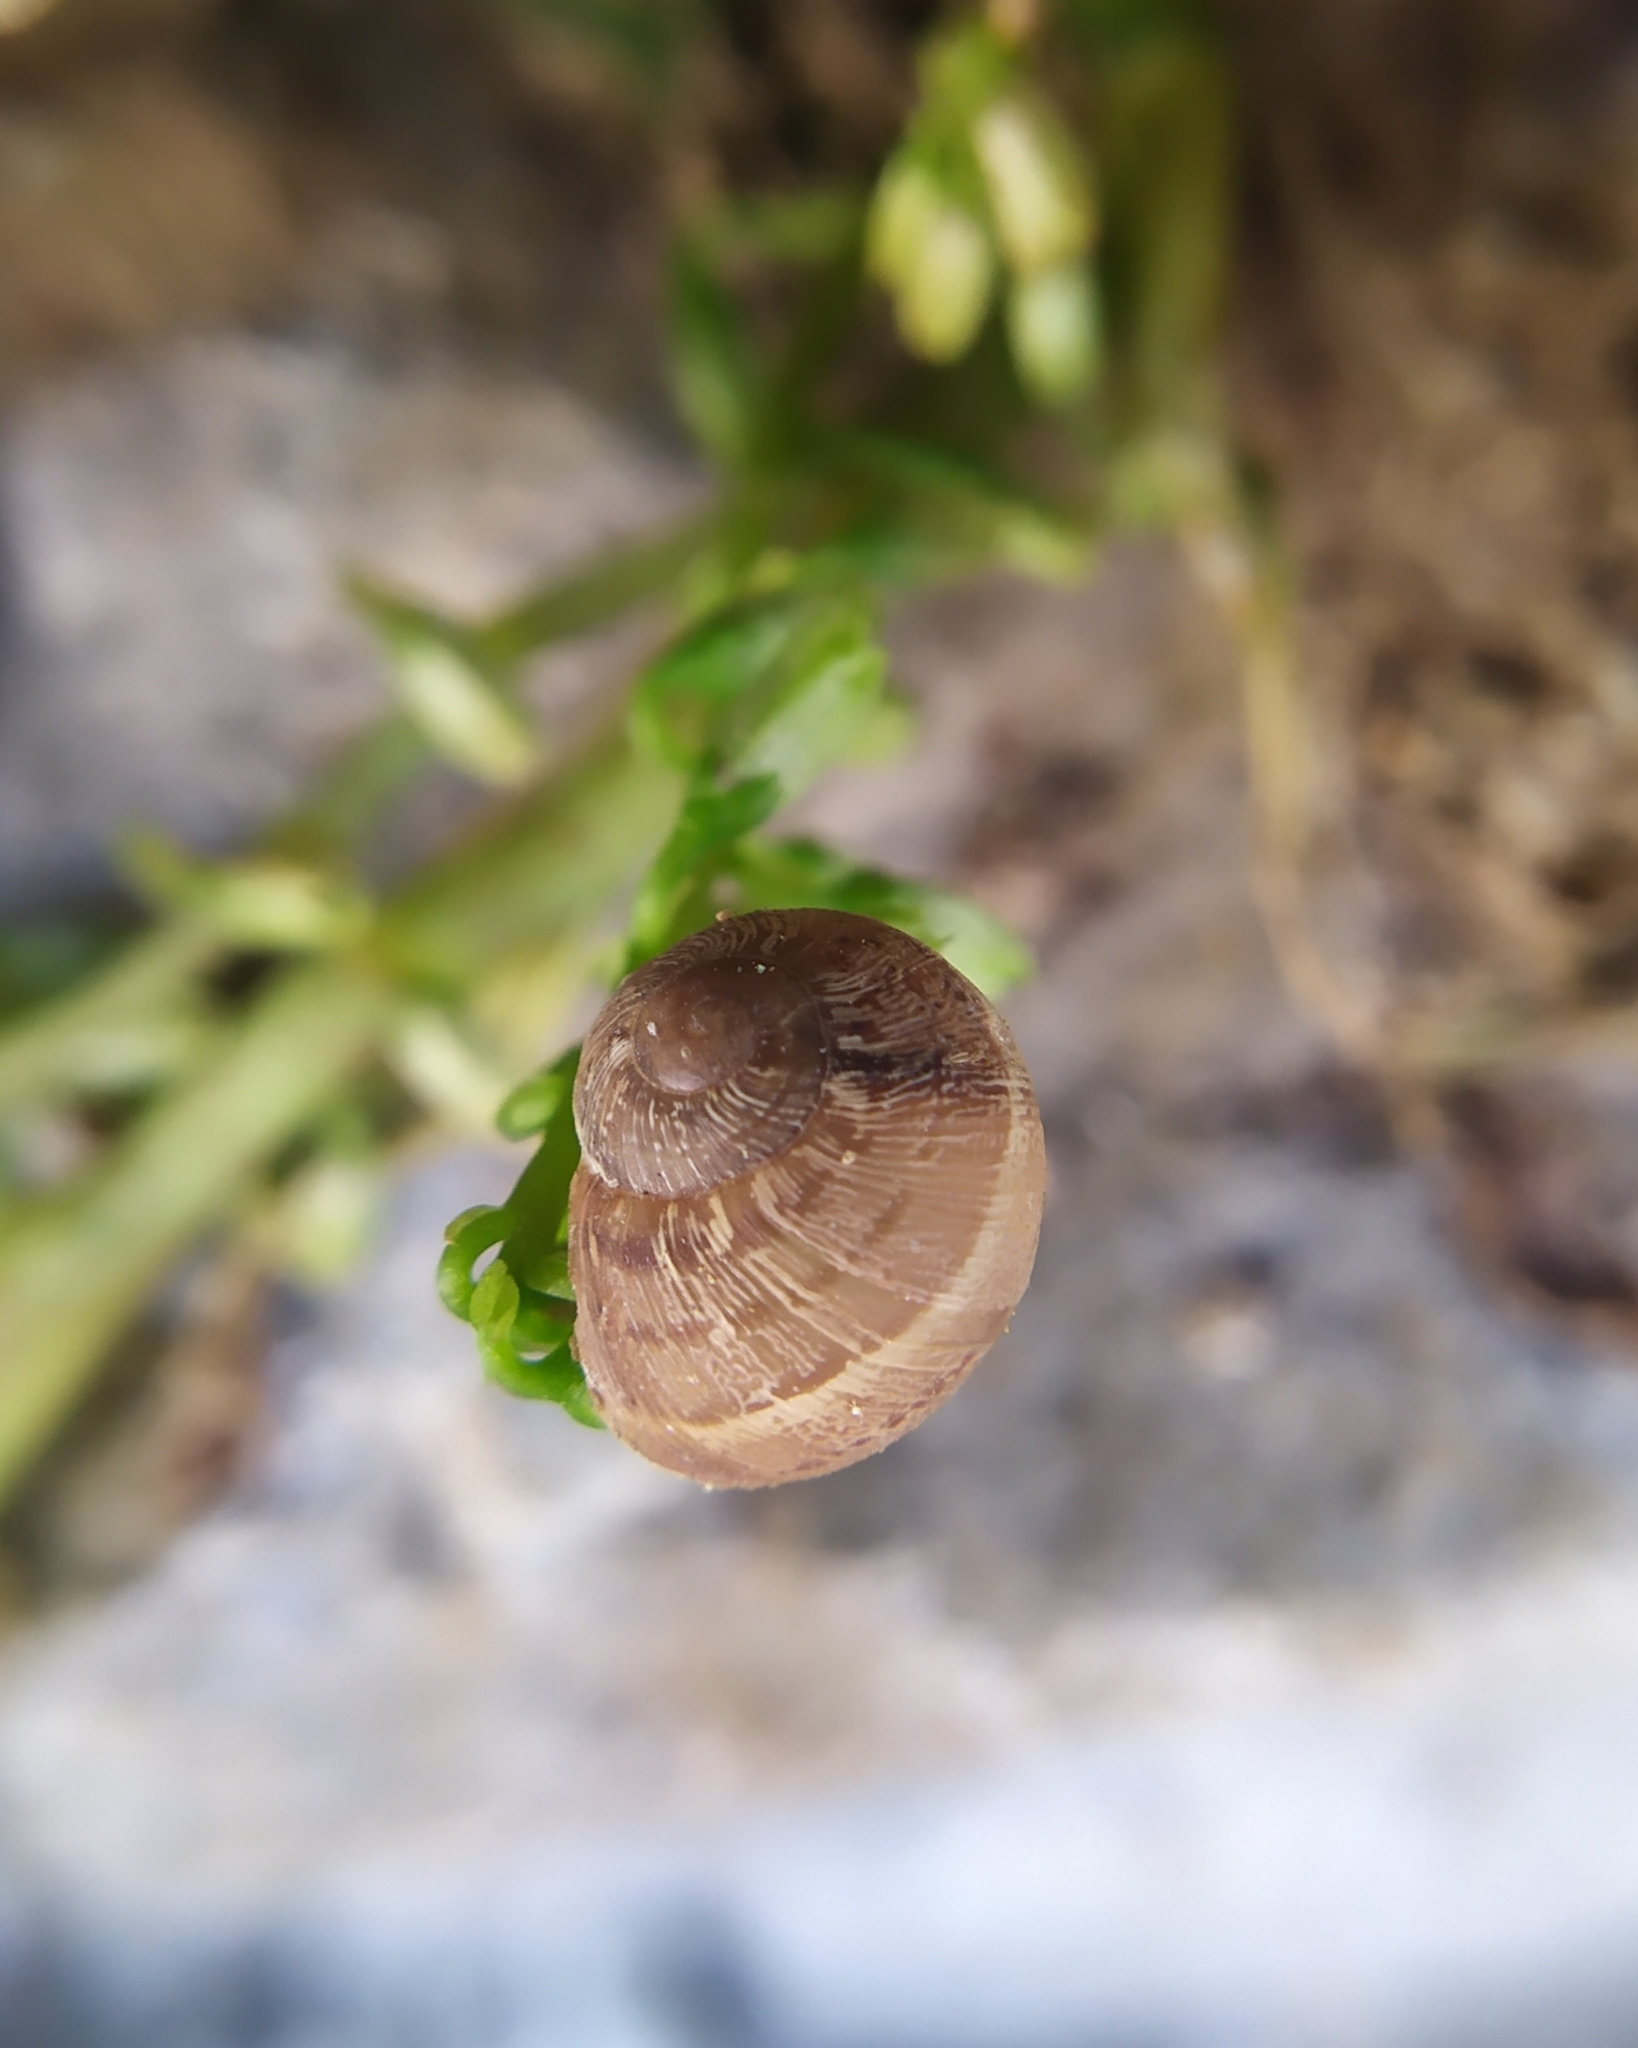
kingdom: Animalia
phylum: Mollusca
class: Gastropoda
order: Stylommatophora
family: Helicidae
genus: Cornu
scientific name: Cornu aspersum
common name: Brown garden snail
